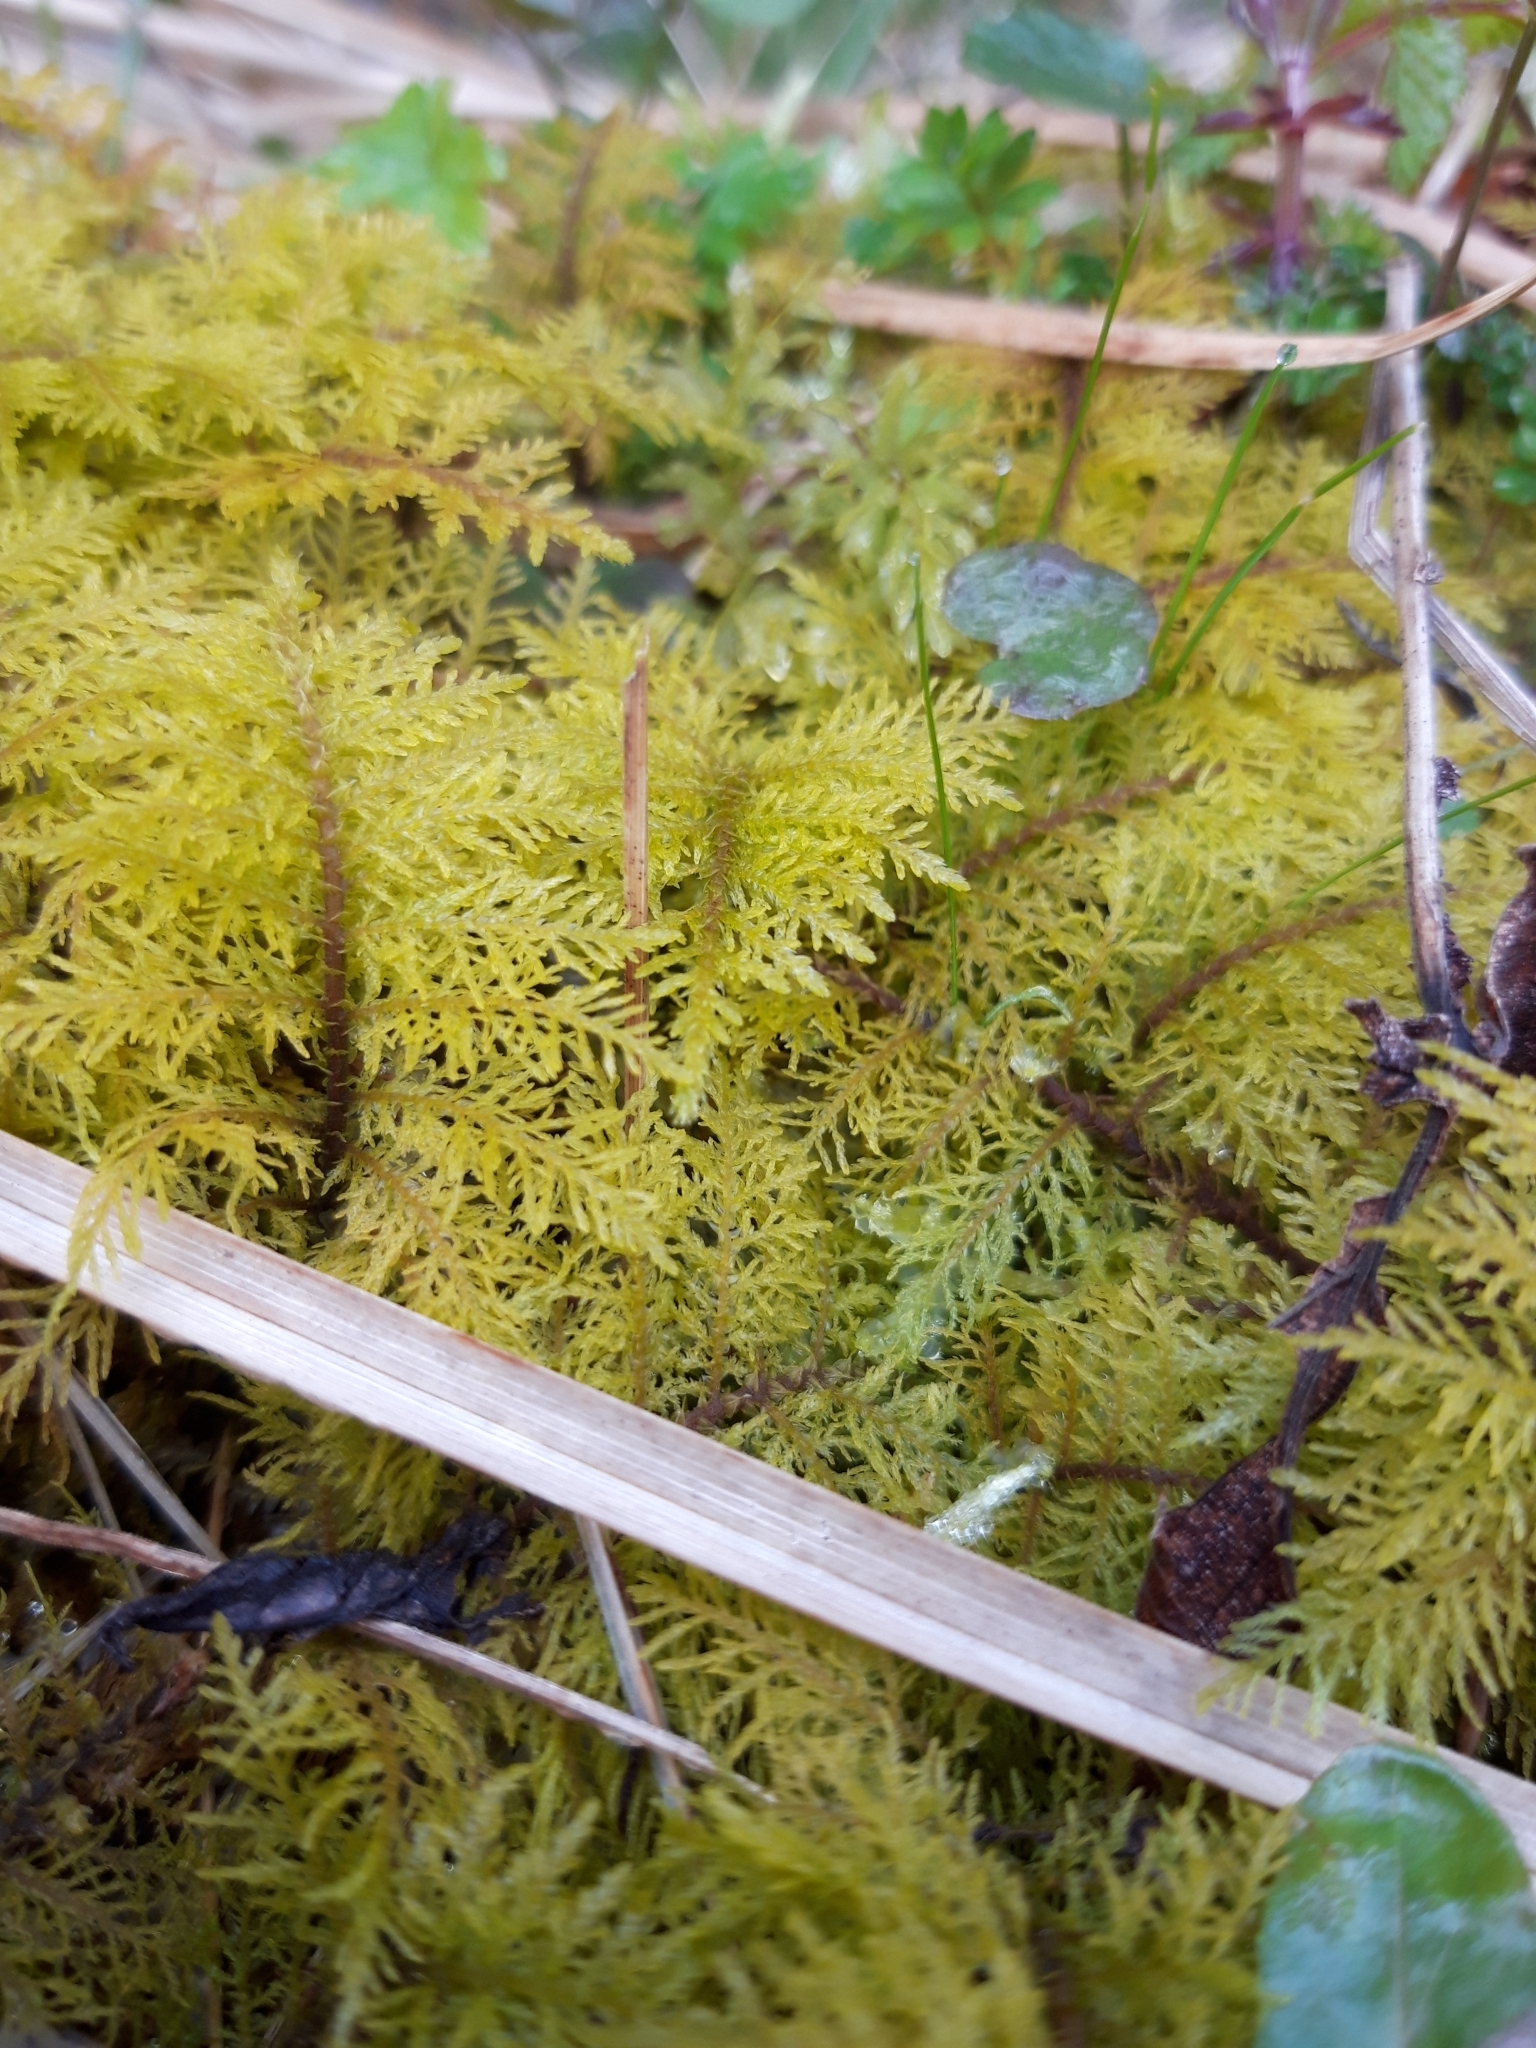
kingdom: Plantae
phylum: Bryophyta
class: Bryopsida
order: Hypnales
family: Hylocomiaceae
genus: Hylocomium
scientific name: Hylocomium splendens
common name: Stairstep moss
